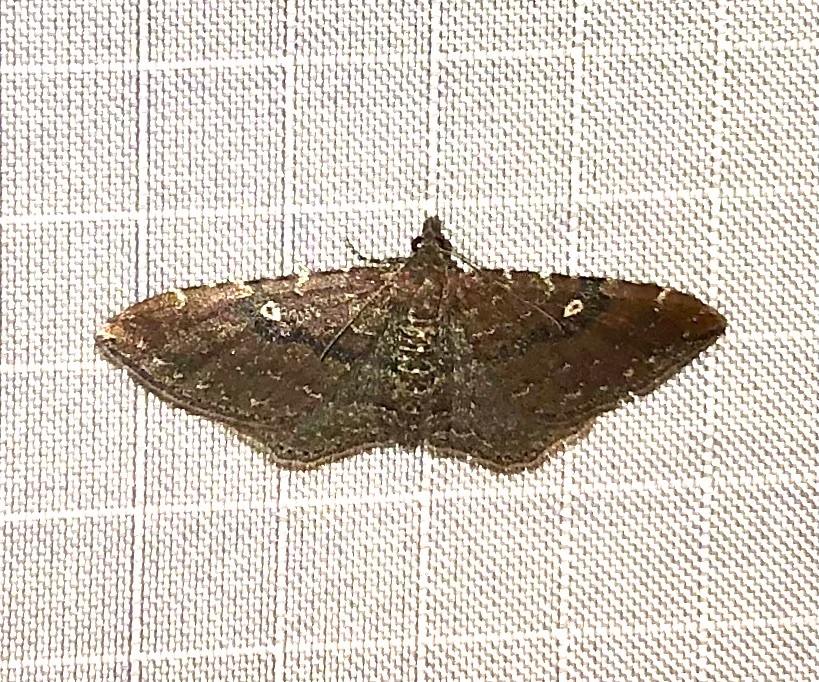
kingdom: Animalia
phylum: Arthropoda
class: Insecta
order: Lepidoptera
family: Geometridae
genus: Orthonama
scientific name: Orthonama obstipata
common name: The gem
